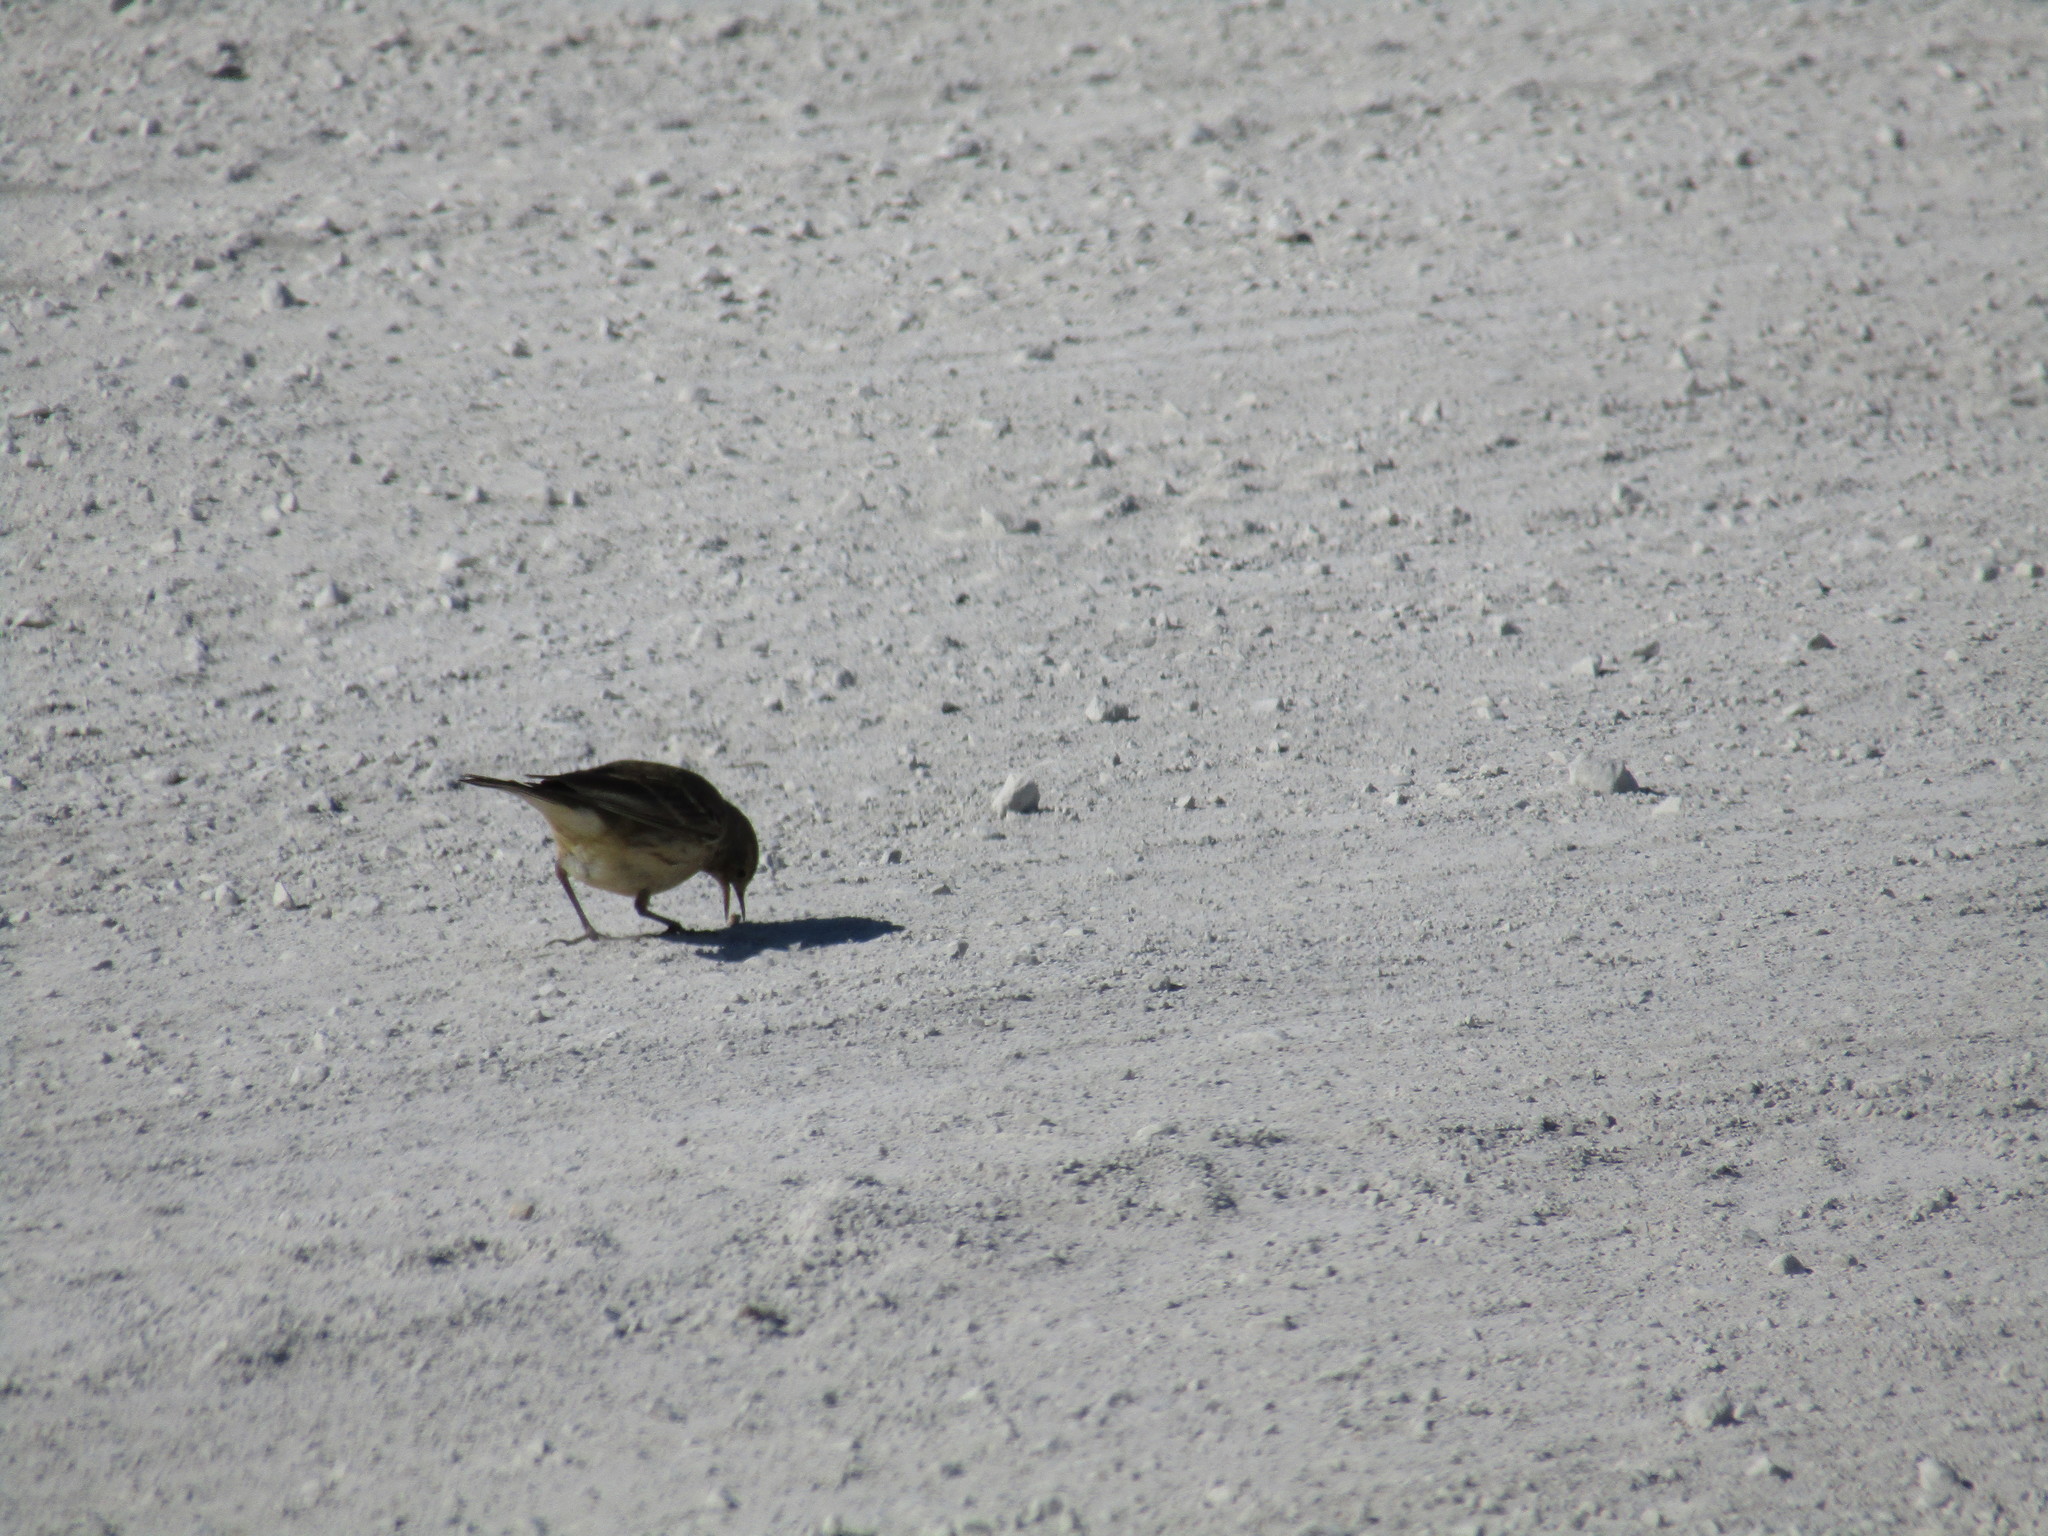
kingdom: Animalia
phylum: Chordata
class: Aves
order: Passeriformes
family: Motacillidae
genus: Anthus
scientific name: Anthus rubescens
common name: Buff-bellied pipit
